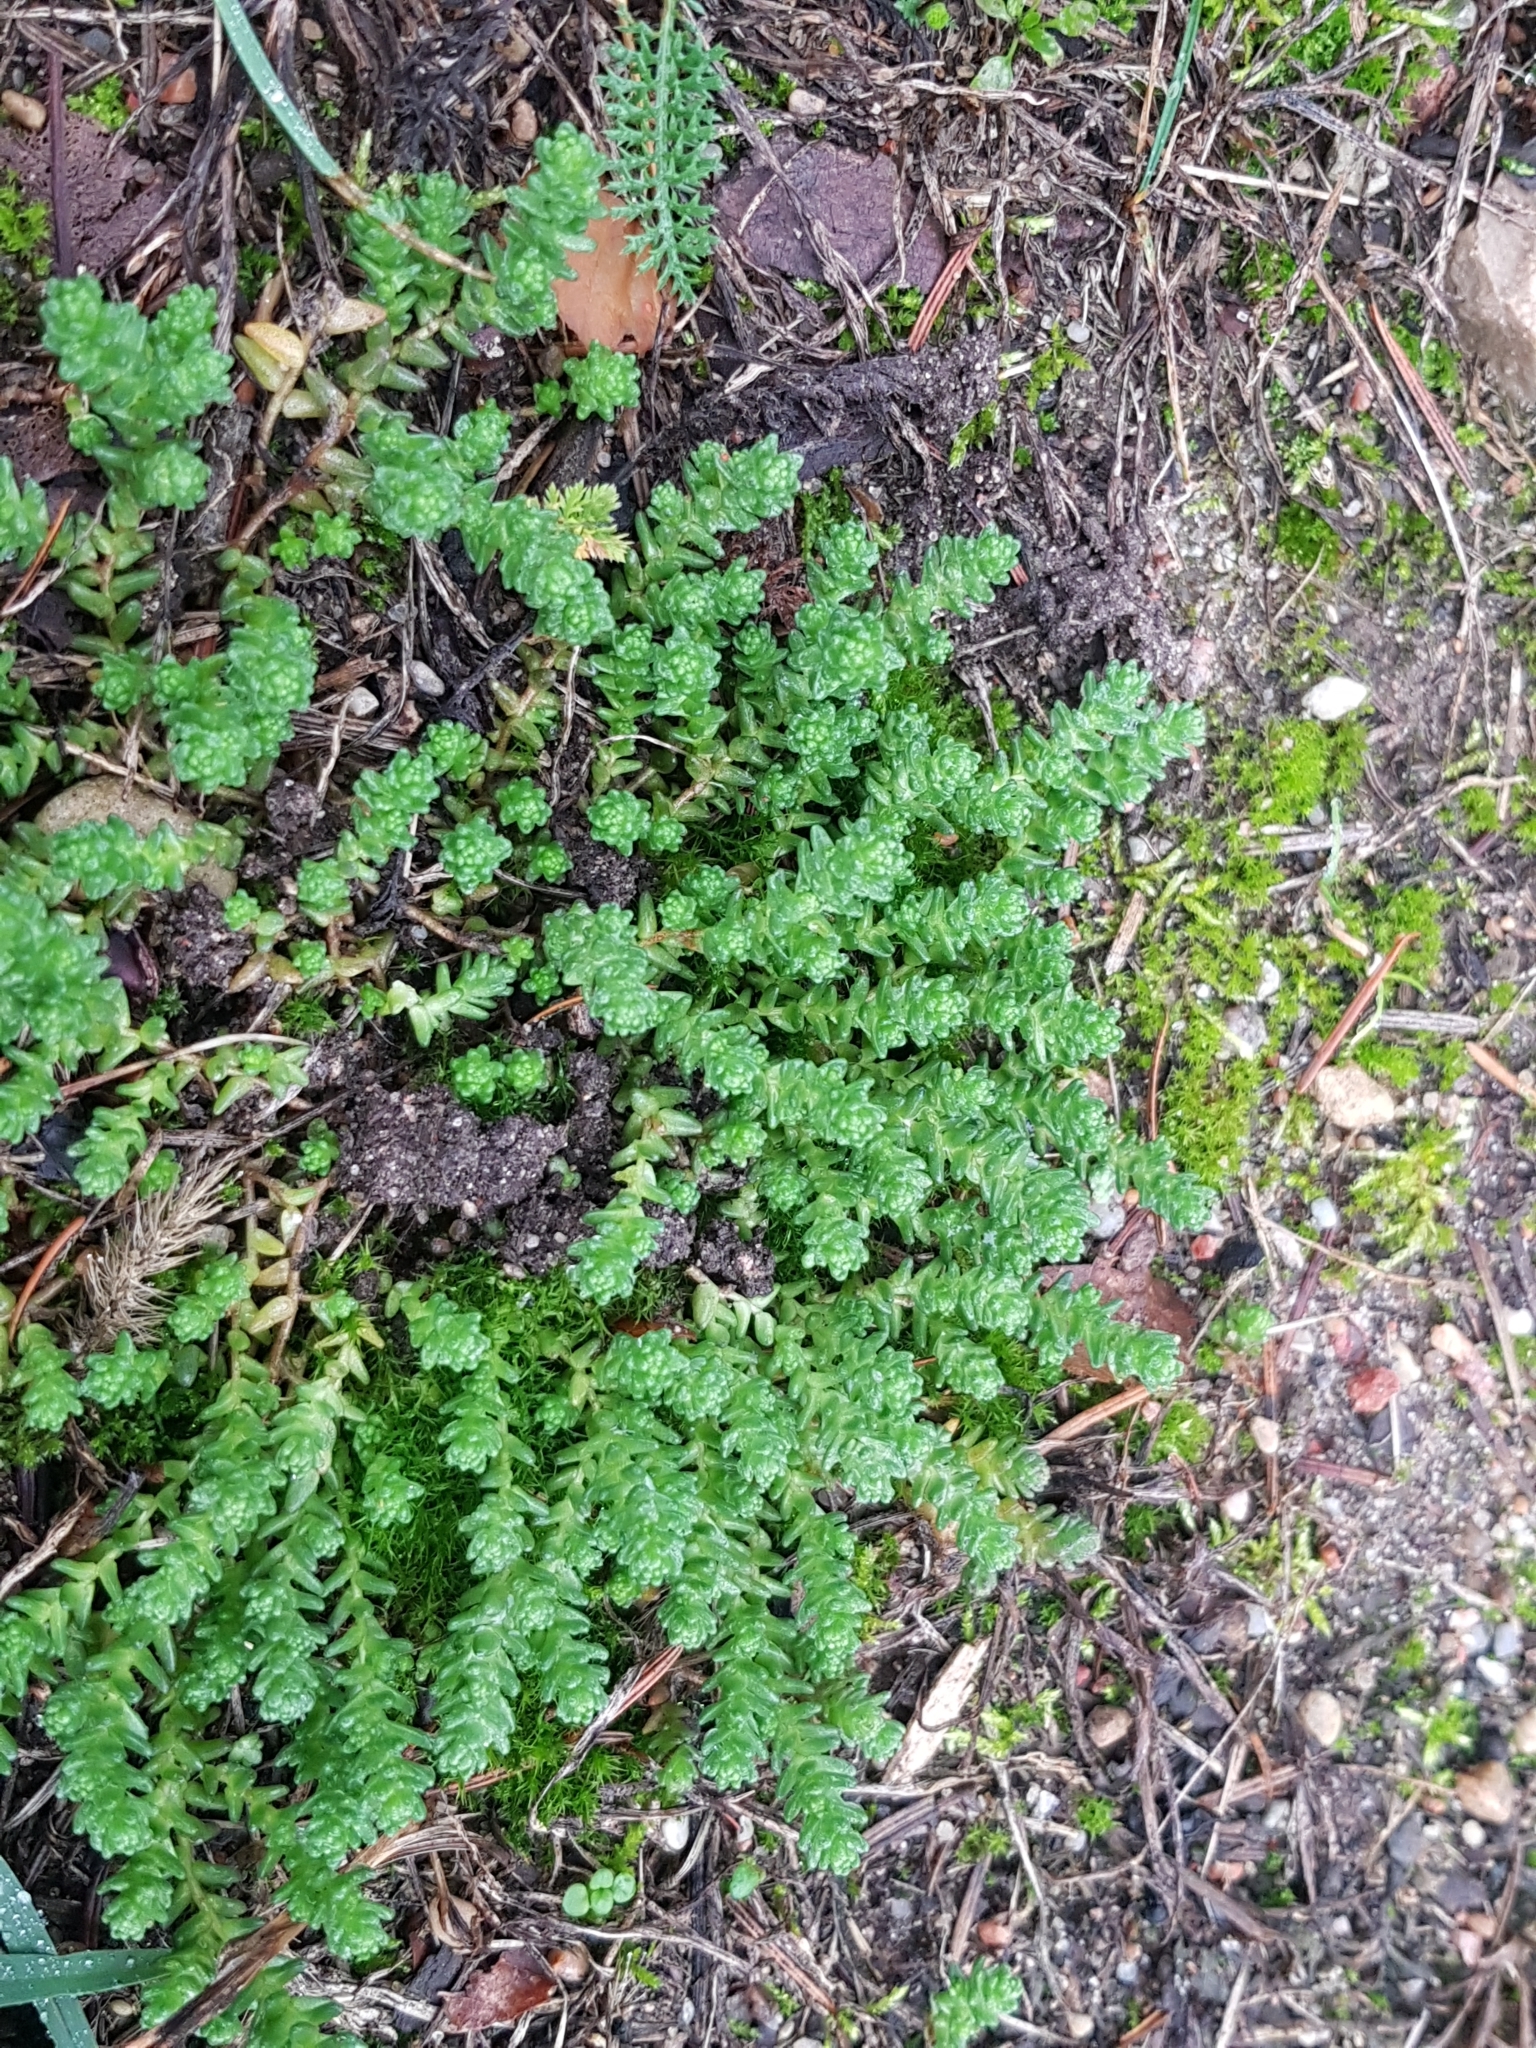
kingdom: Plantae
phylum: Tracheophyta
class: Magnoliopsida
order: Saxifragales
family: Crassulaceae
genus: Sedum
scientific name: Sedum acre
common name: Biting stonecrop
